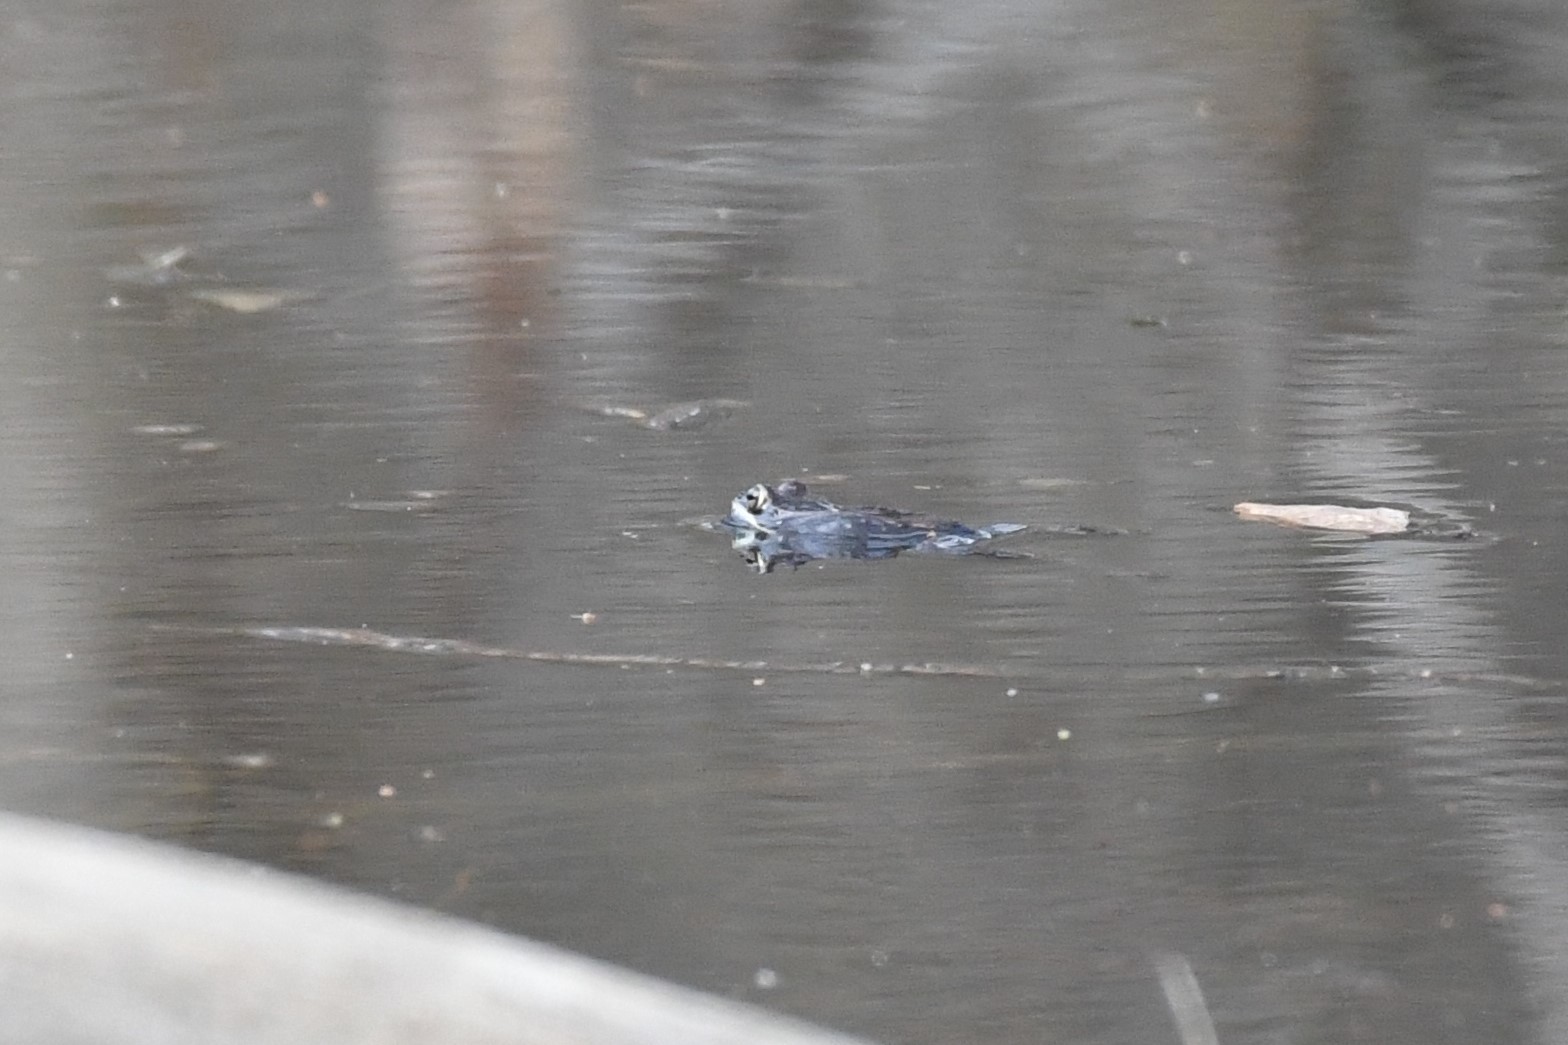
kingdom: Animalia
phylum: Chordata
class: Amphibia
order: Anura
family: Ranidae
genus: Lithobates
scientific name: Lithobates sylvaticus
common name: Wood frog
